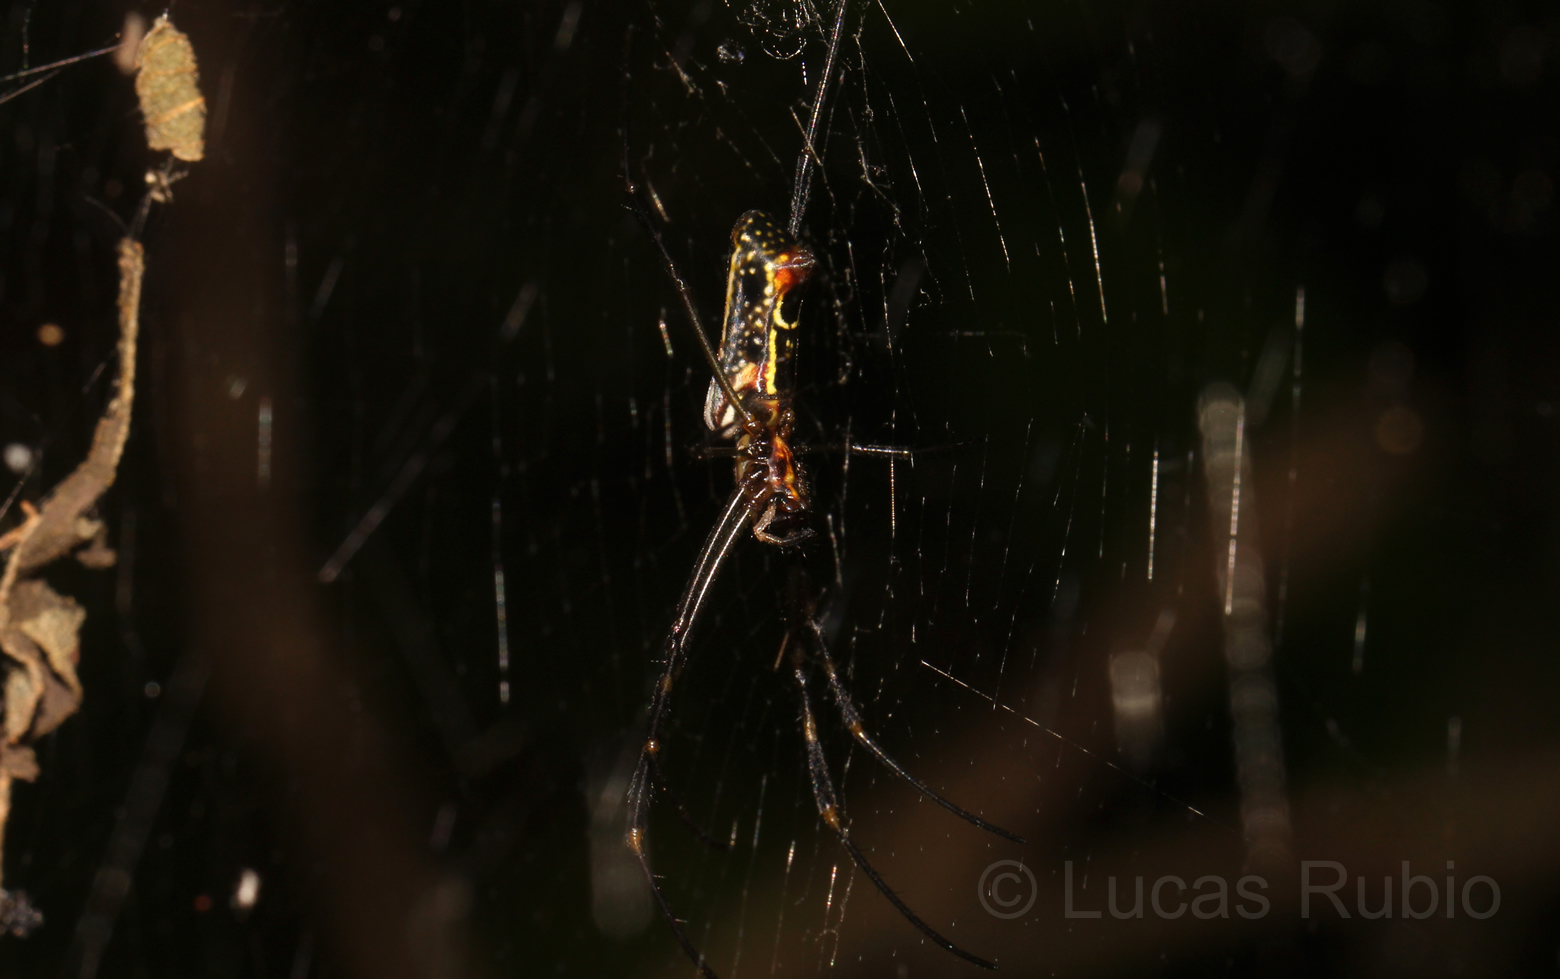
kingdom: Animalia
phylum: Arthropoda
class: Arachnida
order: Araneae
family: Araneidae
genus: Trichonephila
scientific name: Trichonephila clavipes
